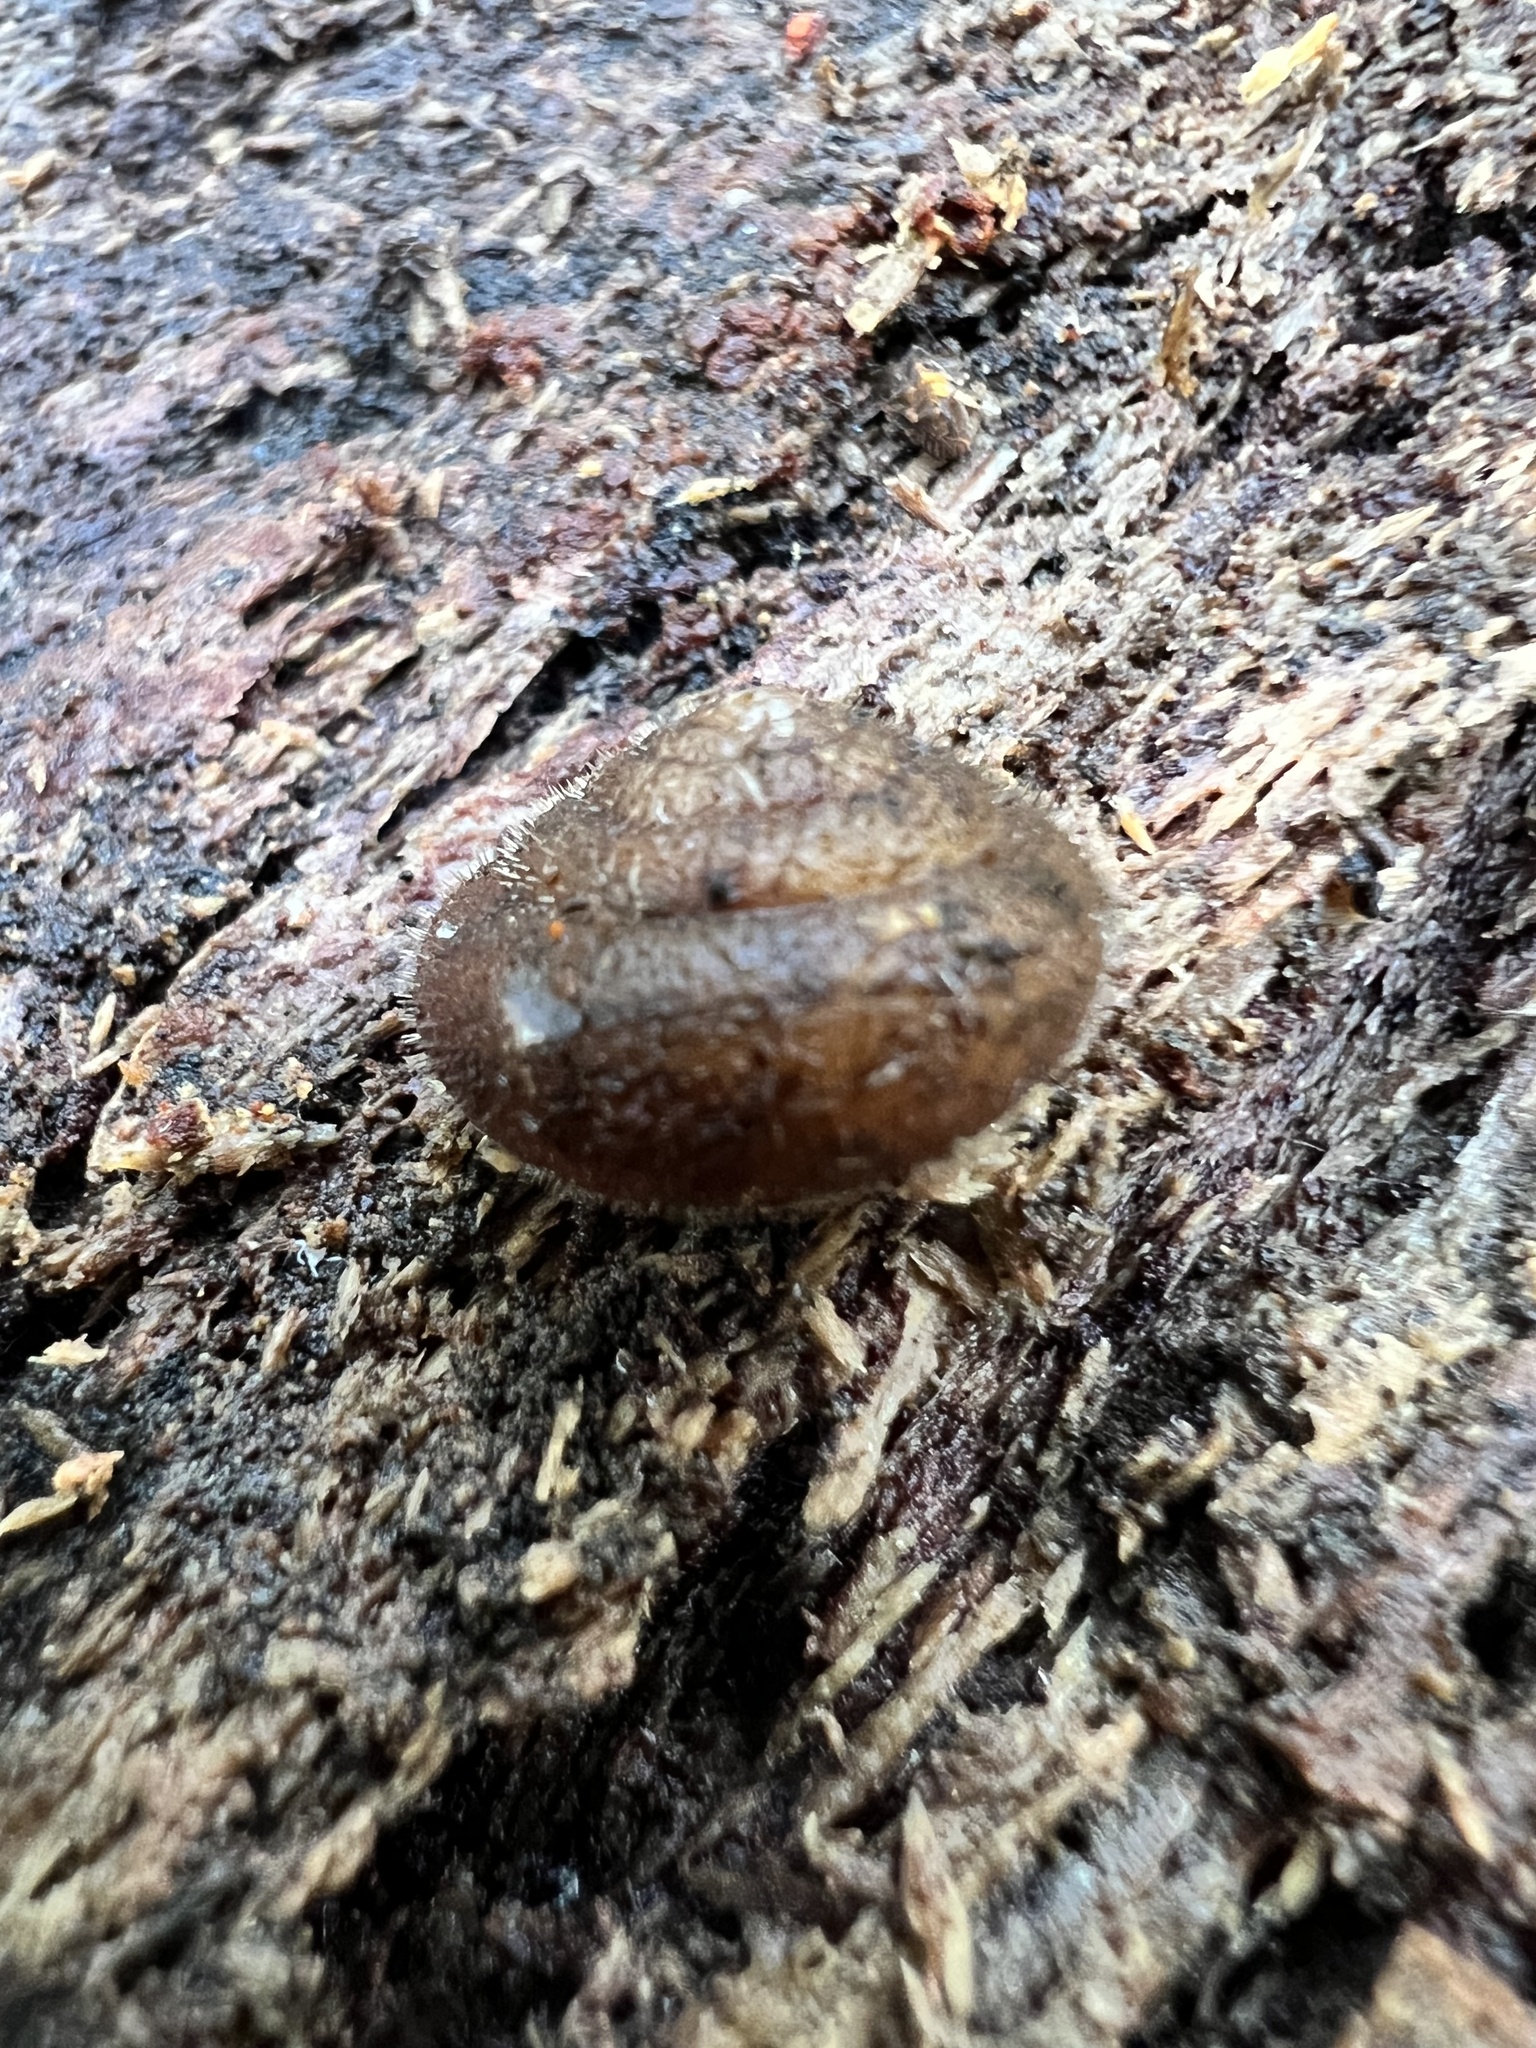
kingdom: Animalia
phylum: Mollusca
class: Gastropoda
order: Stylommatophora
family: Polygyridae
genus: Vespericola
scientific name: Vespericola columbianus
